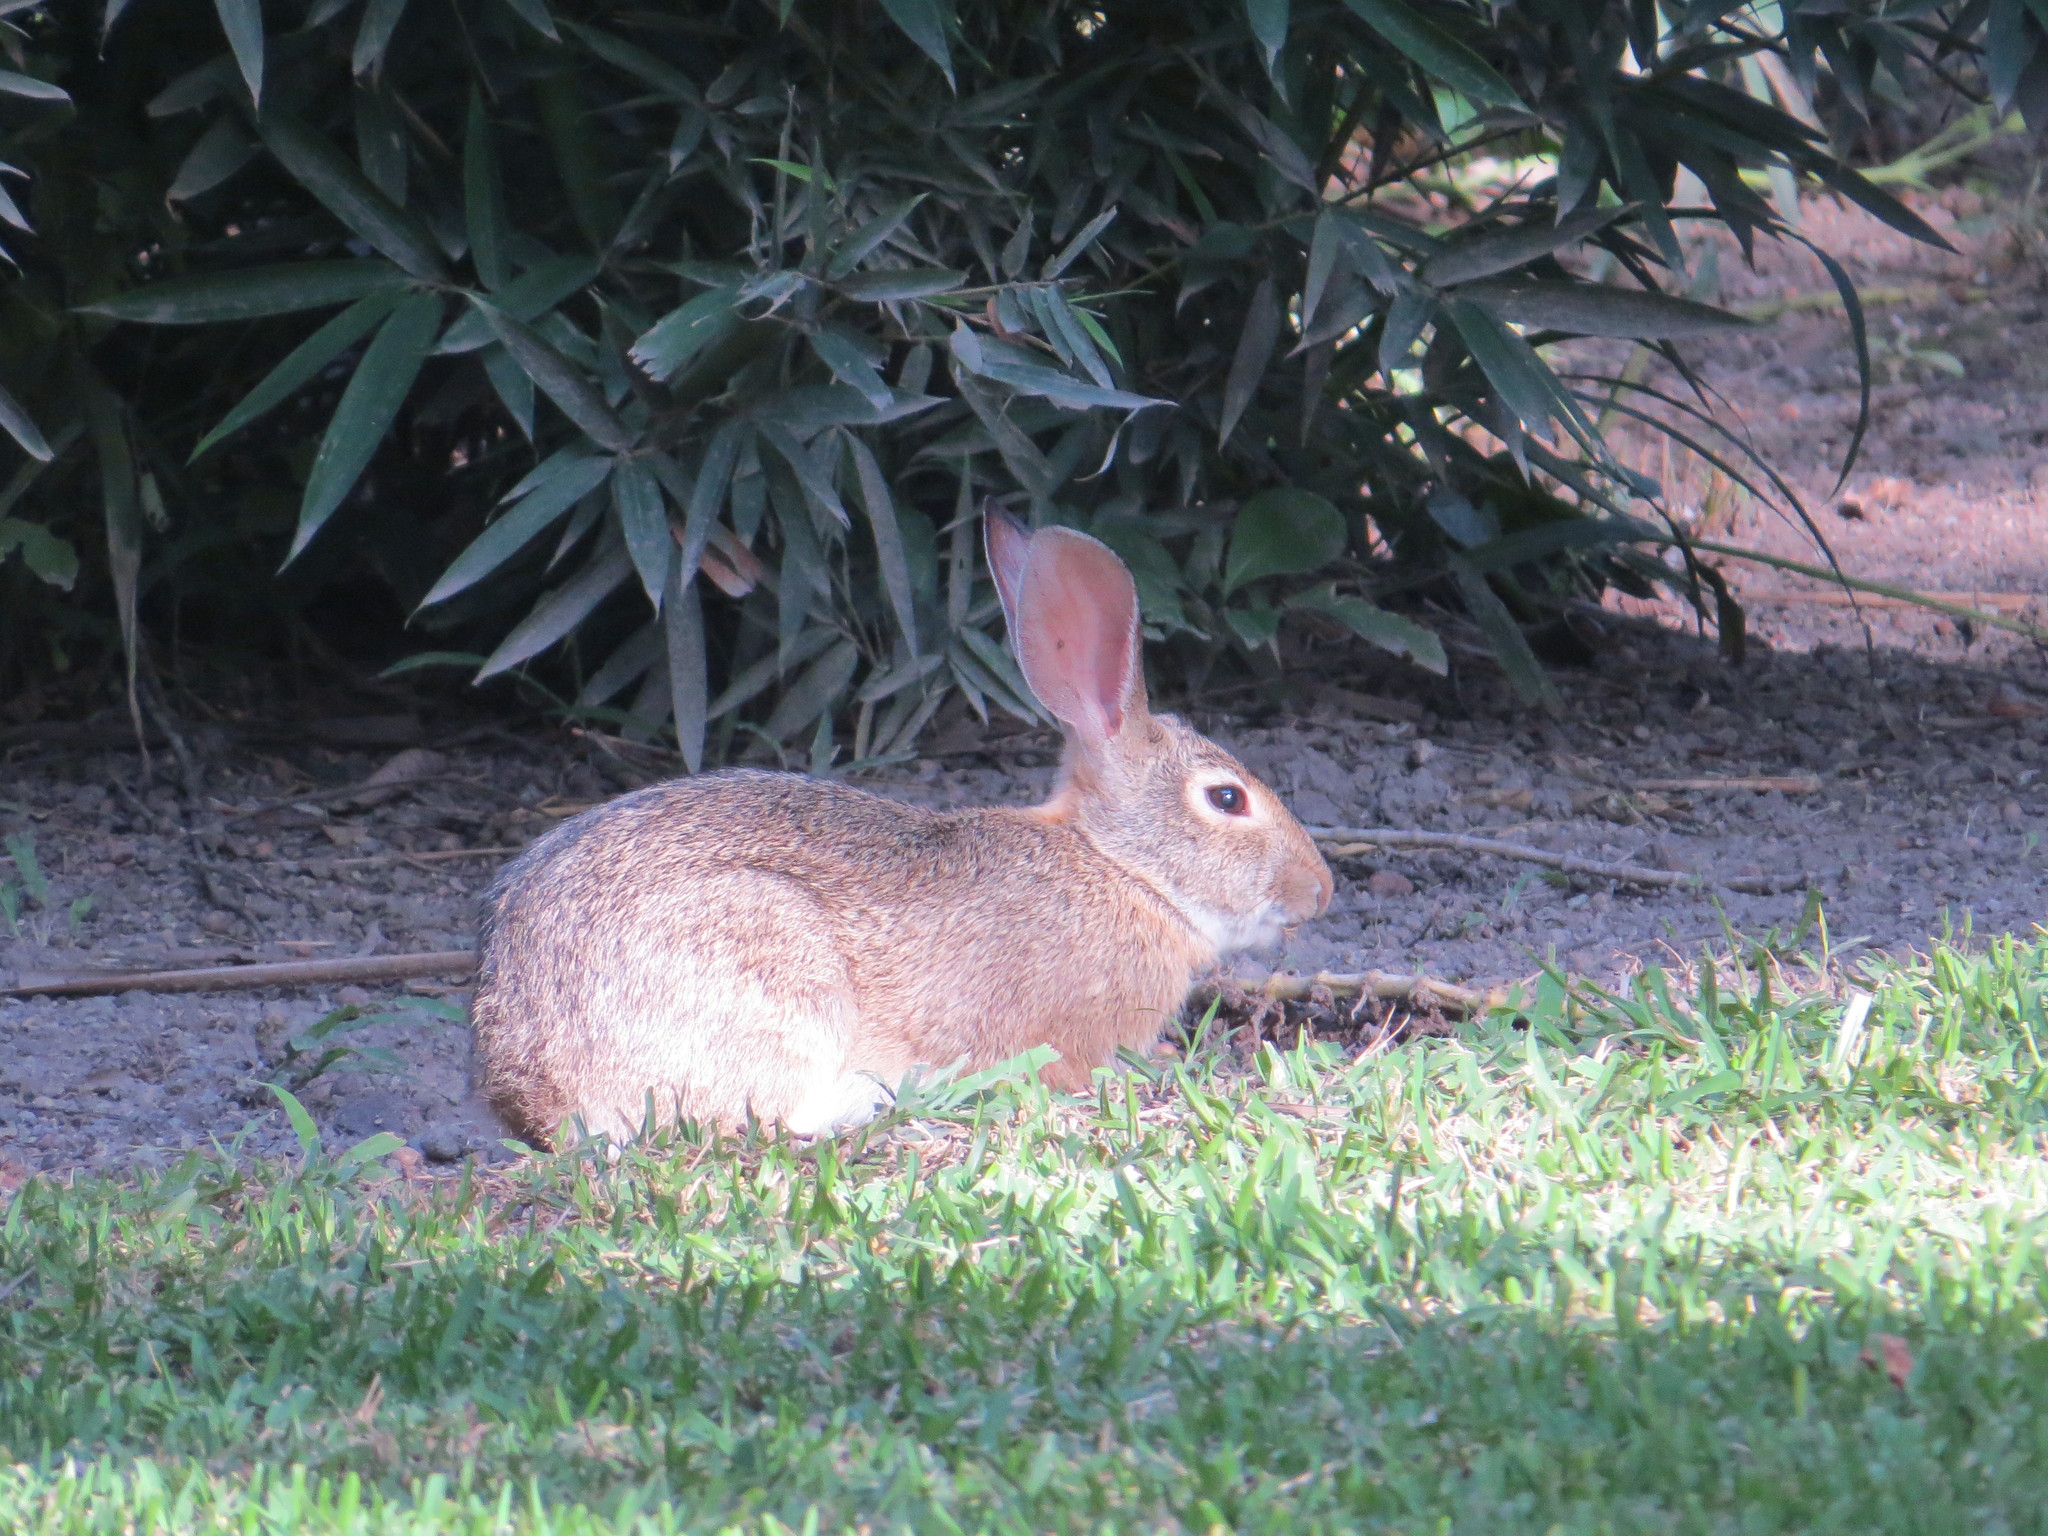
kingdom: Animalia
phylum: Chordata
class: Mammalia
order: Lagomorpha
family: Leporidae
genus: Sylvilagus
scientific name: Sylvilagus cunicularius
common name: Mexican cottontail
